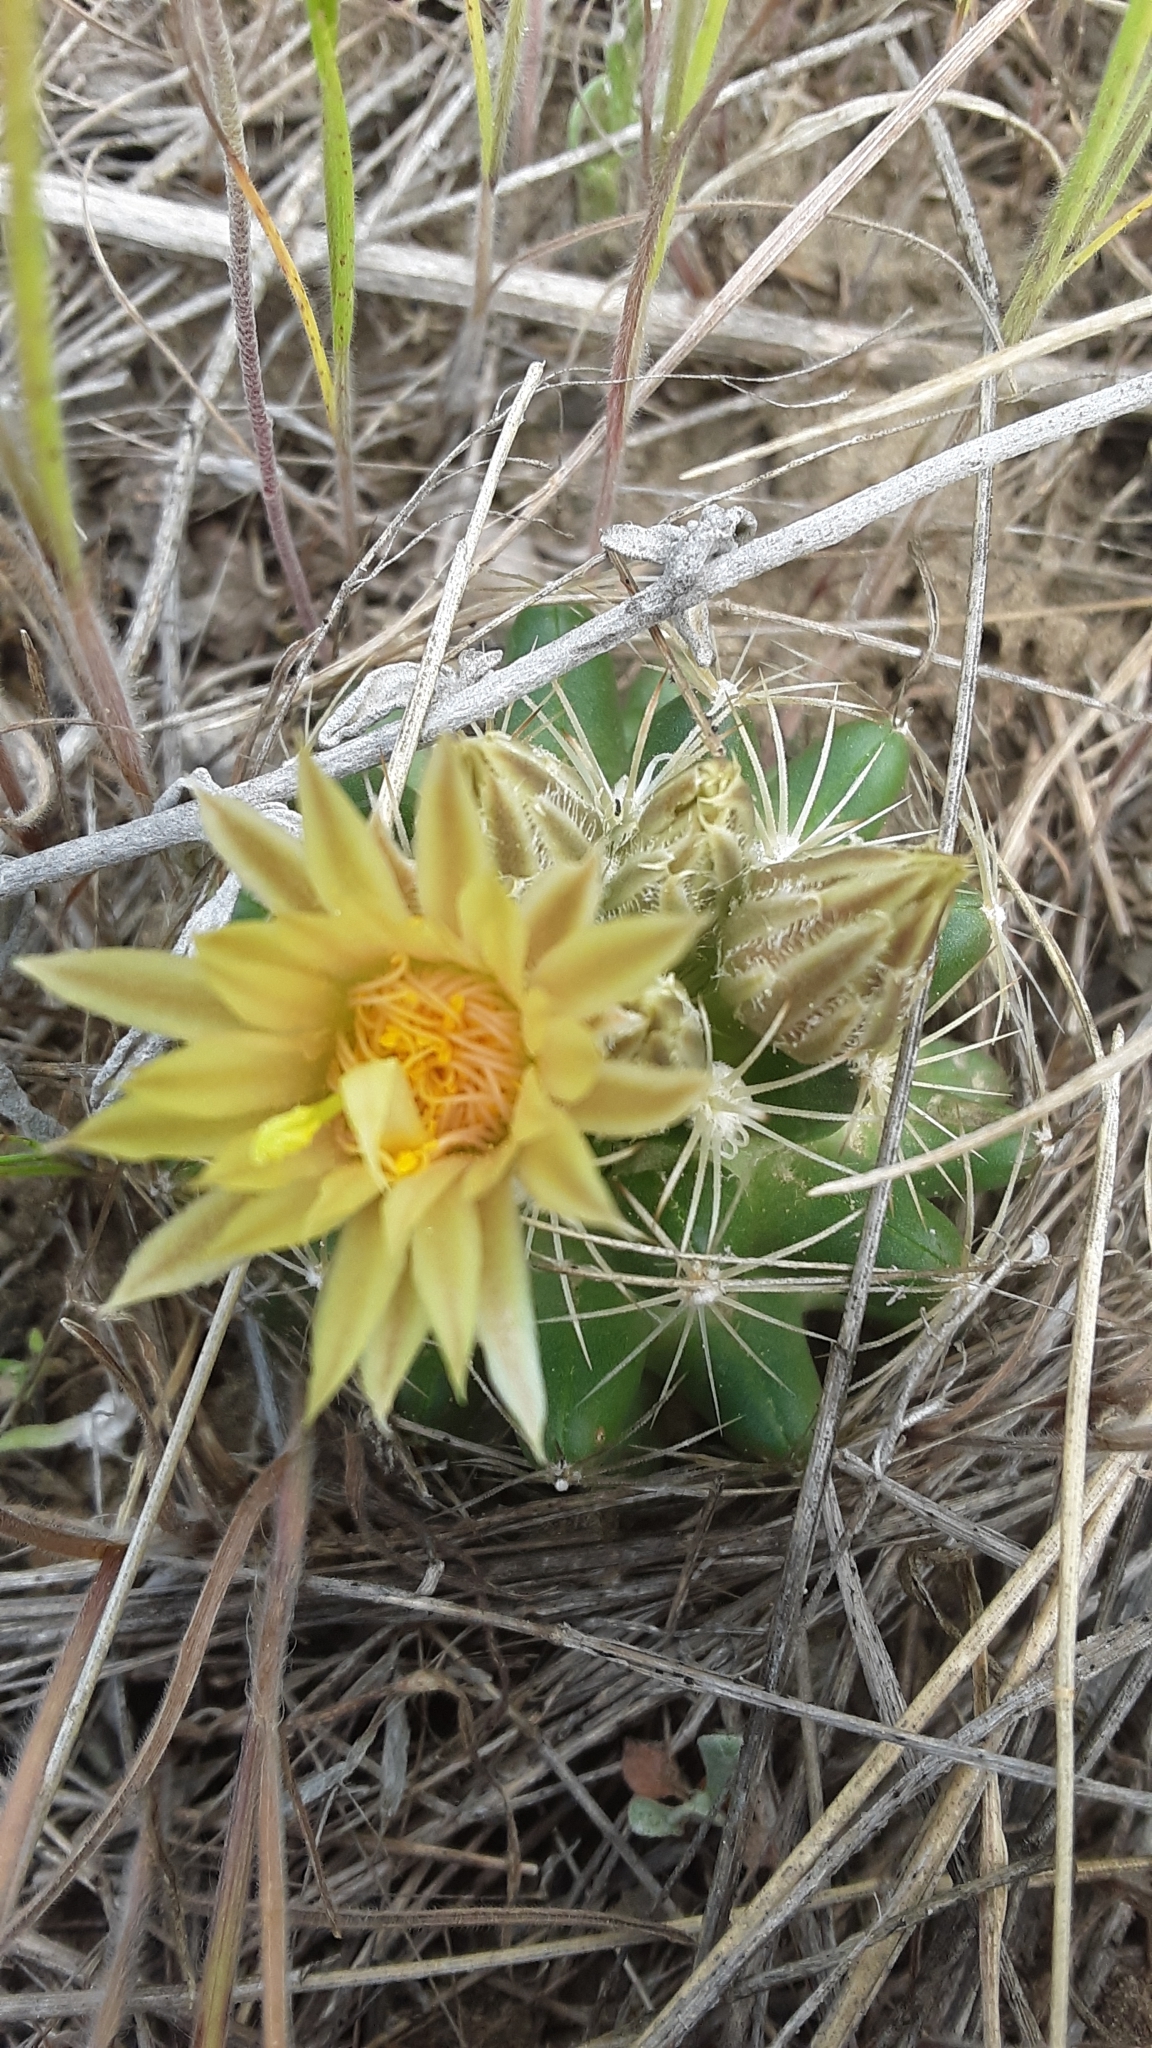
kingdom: Plantae
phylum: Tracheophyta
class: Magnoliopsida
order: Caryophyllales
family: Cactaceae
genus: Pelecyphora
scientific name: Pelecyphora missouriensis
